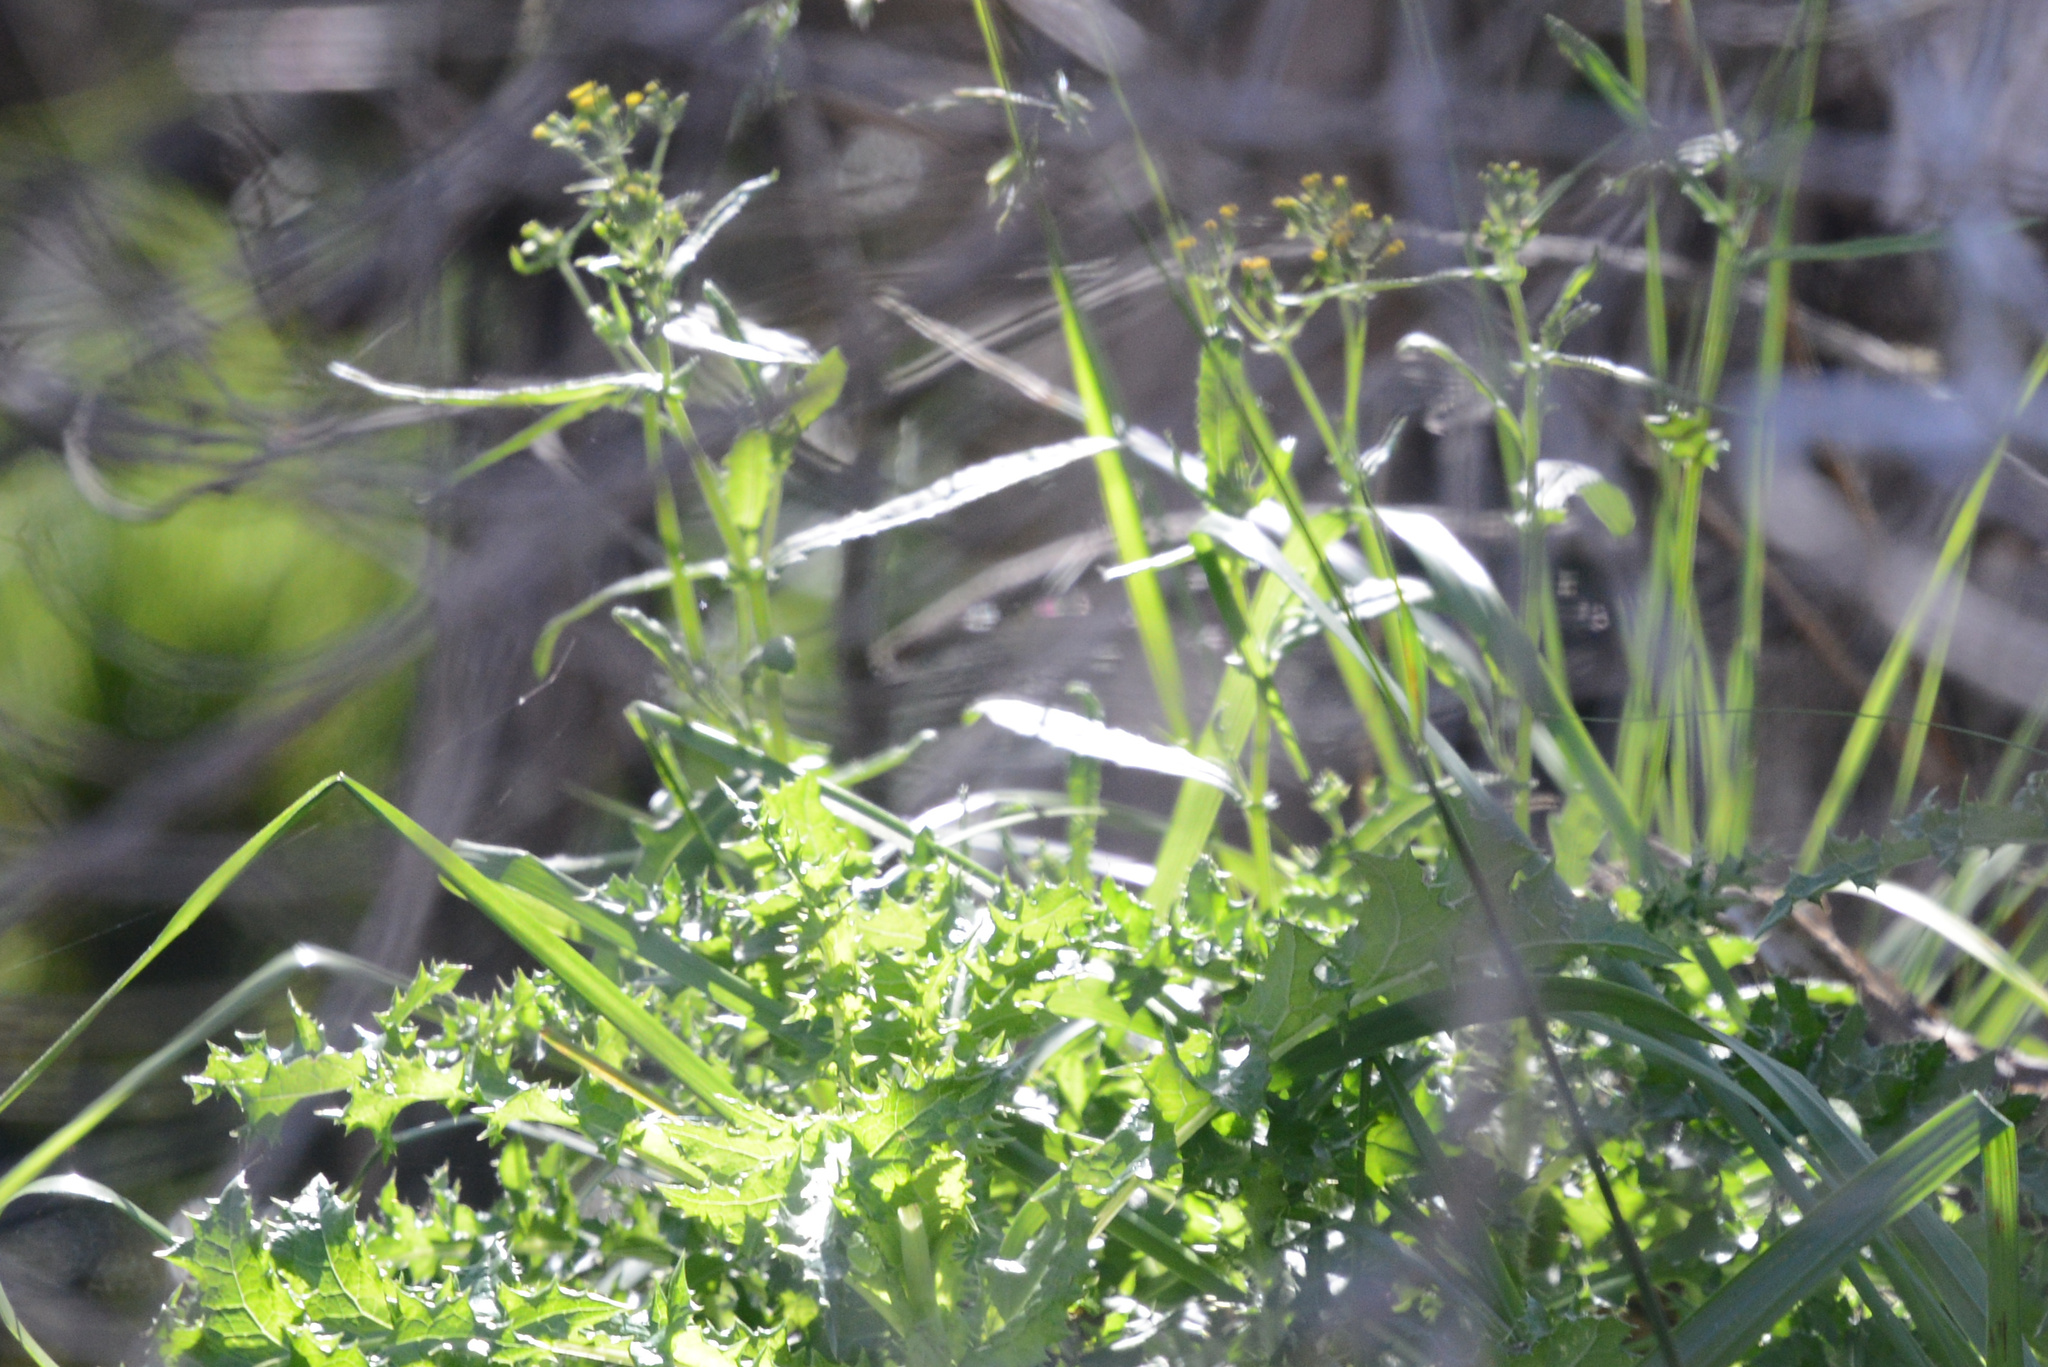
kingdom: Plantae
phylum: Tracheophyta
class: Magnoliopsida
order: Asterales
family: Asteraceae
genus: Senecio
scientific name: Senecio glomeratus
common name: Cutleaf burnweed
